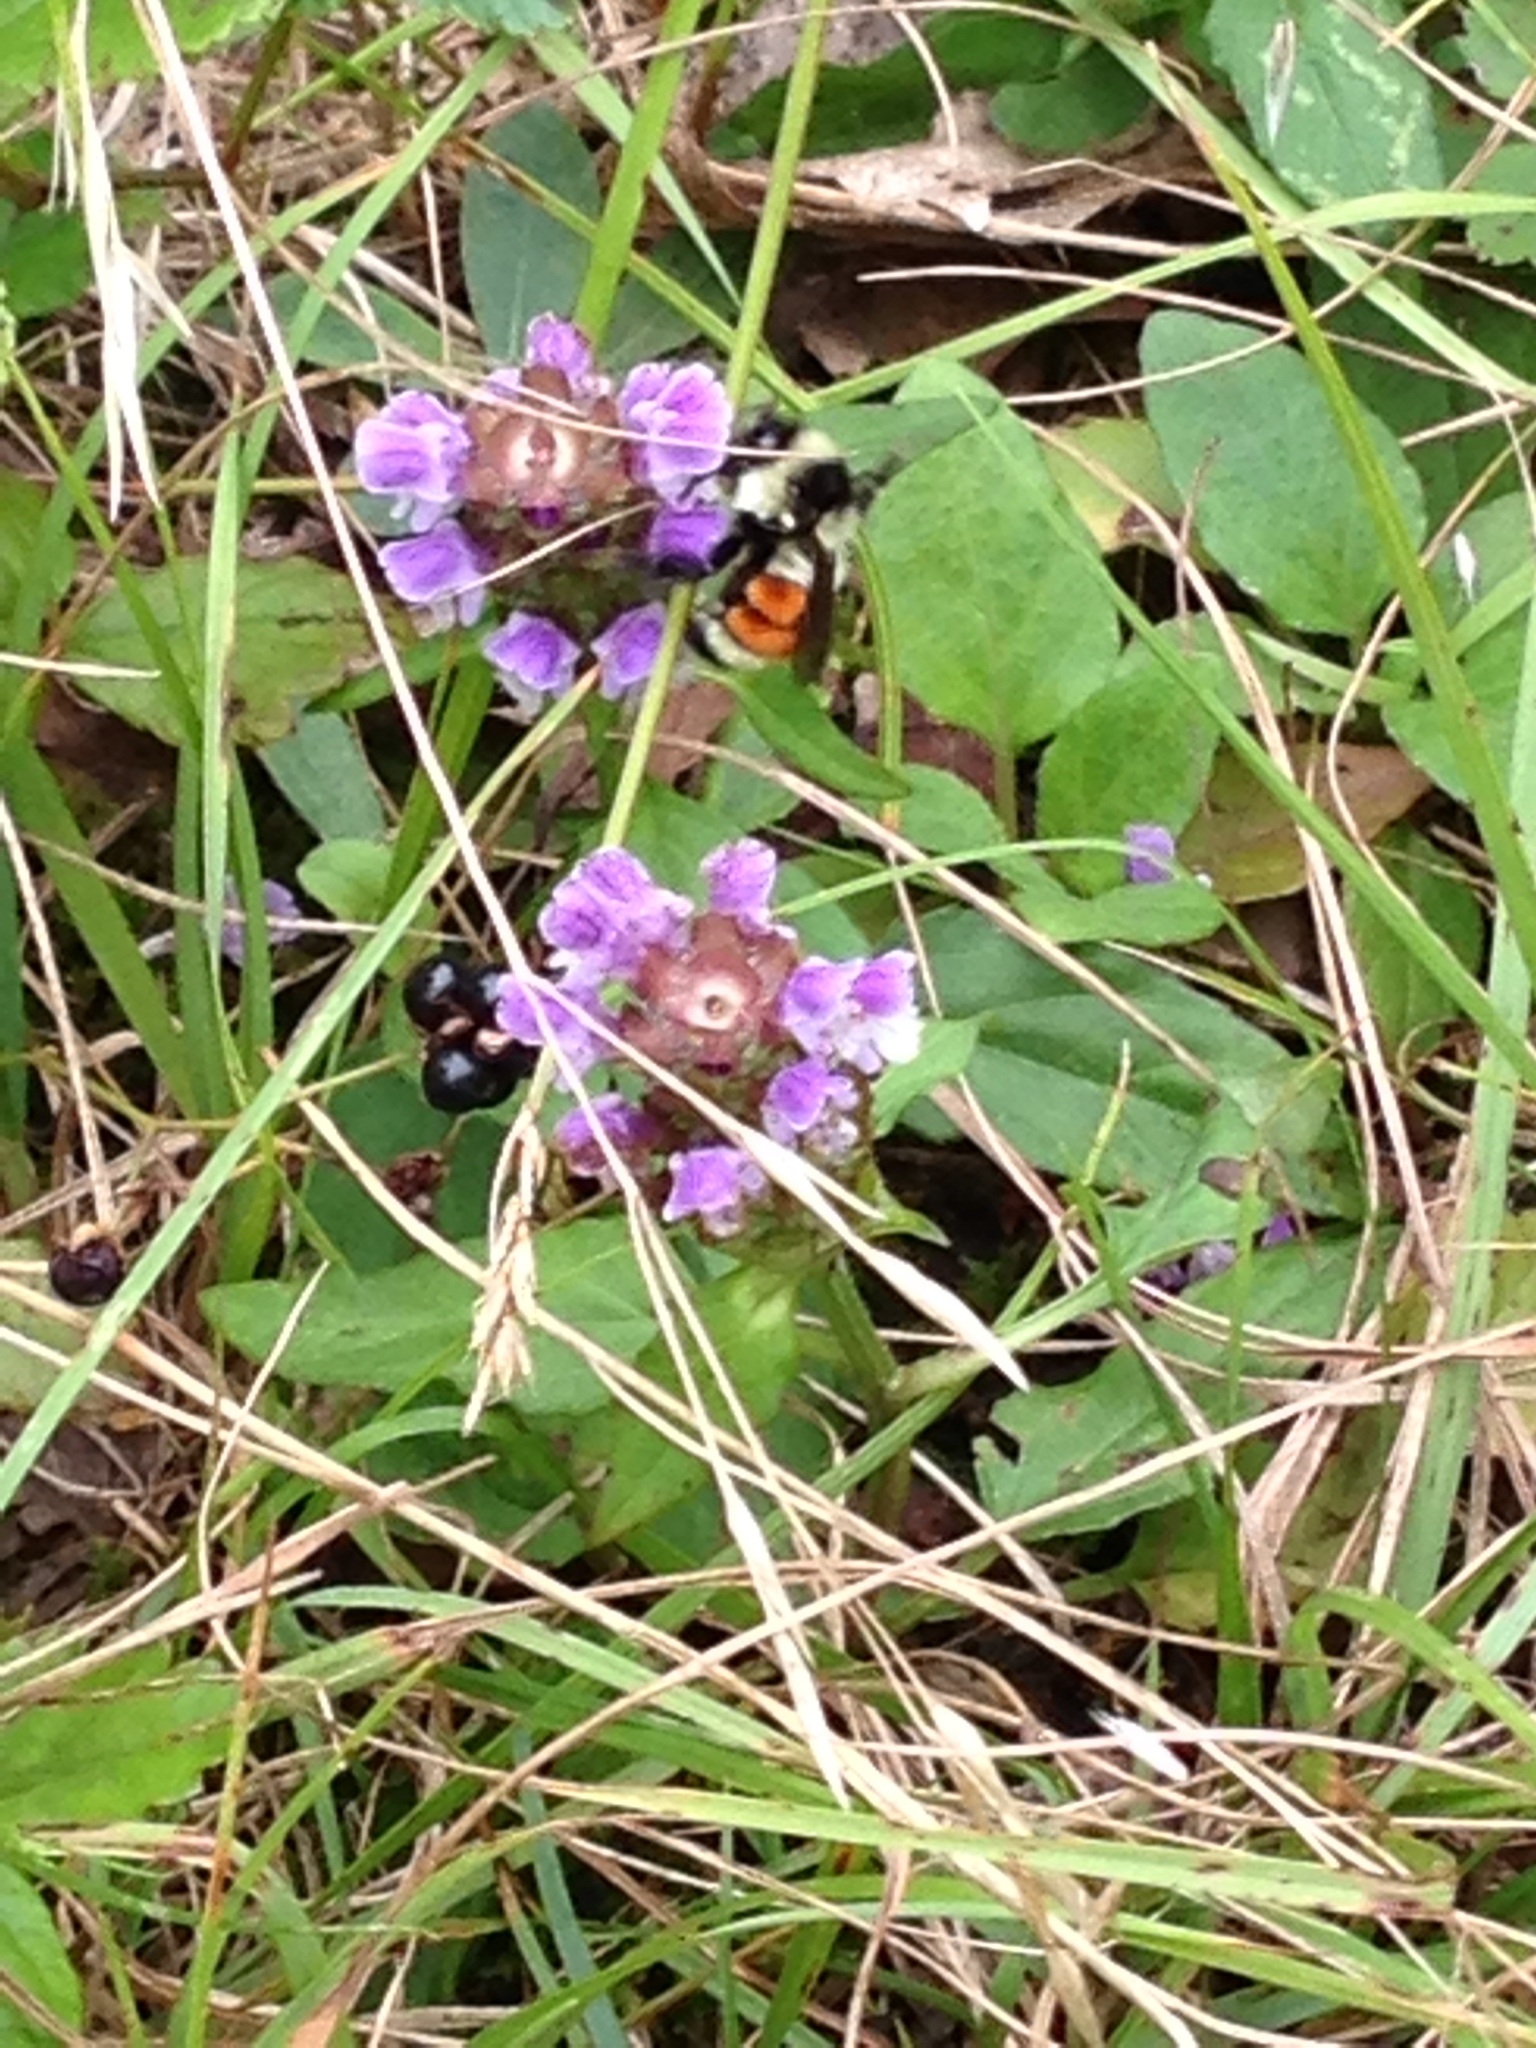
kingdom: Animalia
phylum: Arthropoda
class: Insecta
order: Hymenoptera
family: Apidae
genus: Bombus
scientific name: Bombus ternarius
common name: Tri-colored bumble bee
